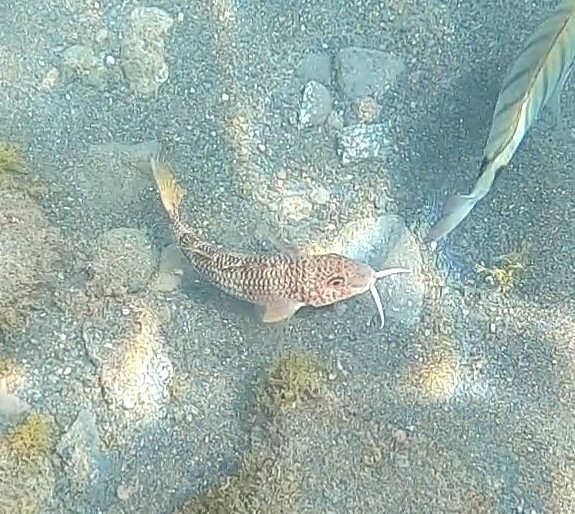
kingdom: Animalia
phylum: Chordata
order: Perciformes
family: Mullidae
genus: Mullus
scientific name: Mullus surmuletus
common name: Red mullet
